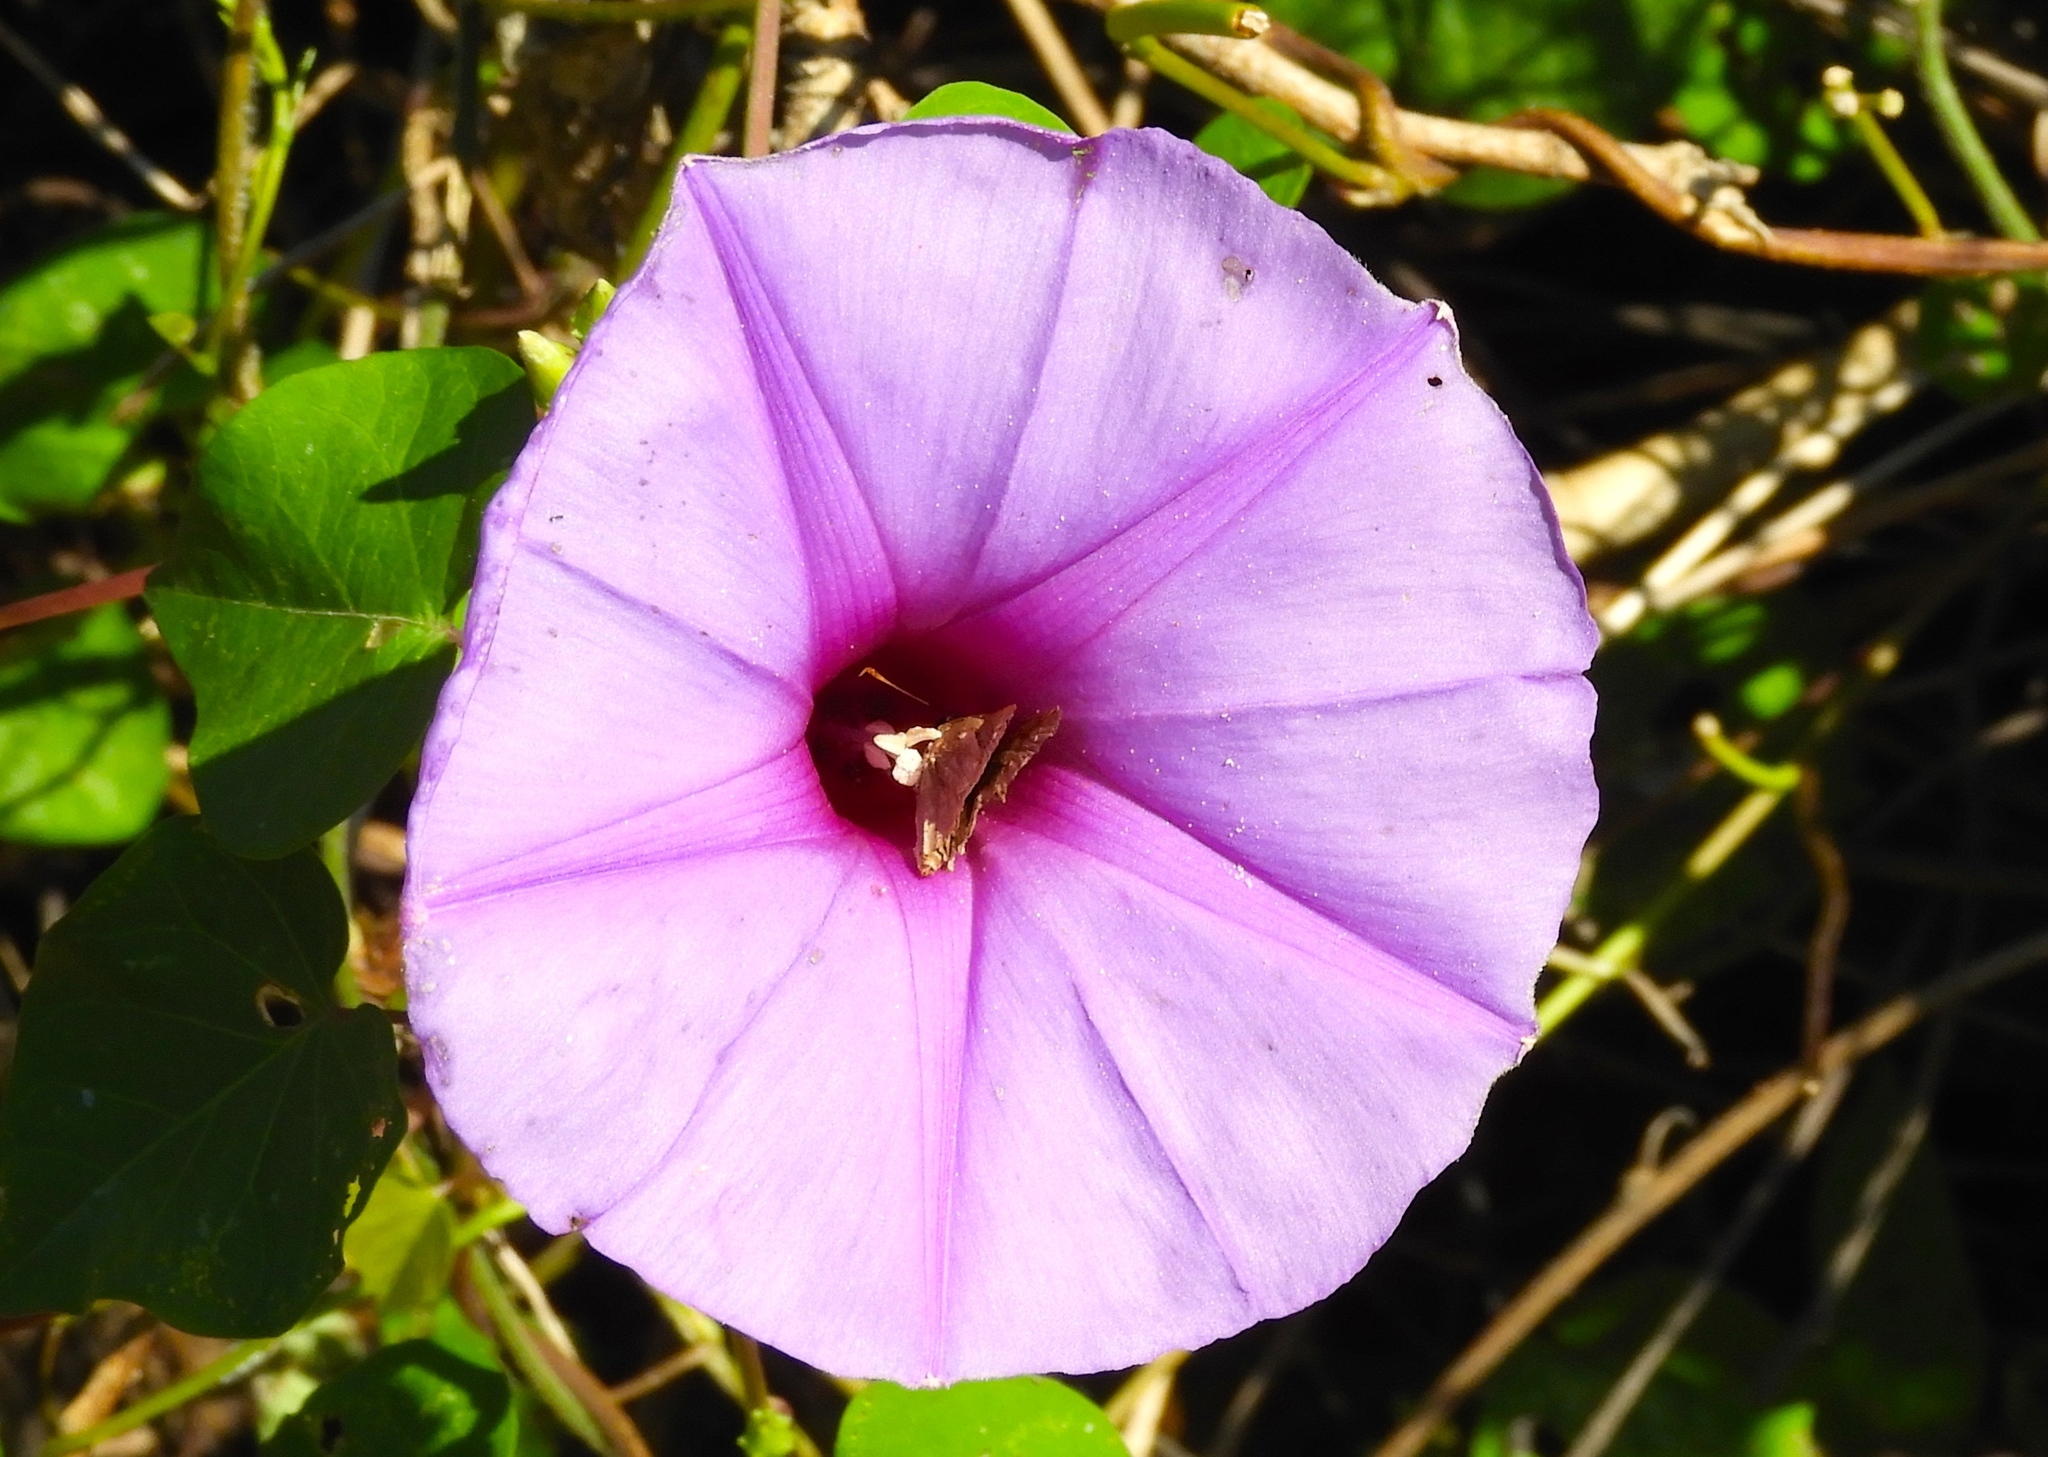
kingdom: Plantae
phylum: Tracheophyta
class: Magnoliopsida
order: Solanales
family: Convolvulaceae
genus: Ipomoea
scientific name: Ipomoea
